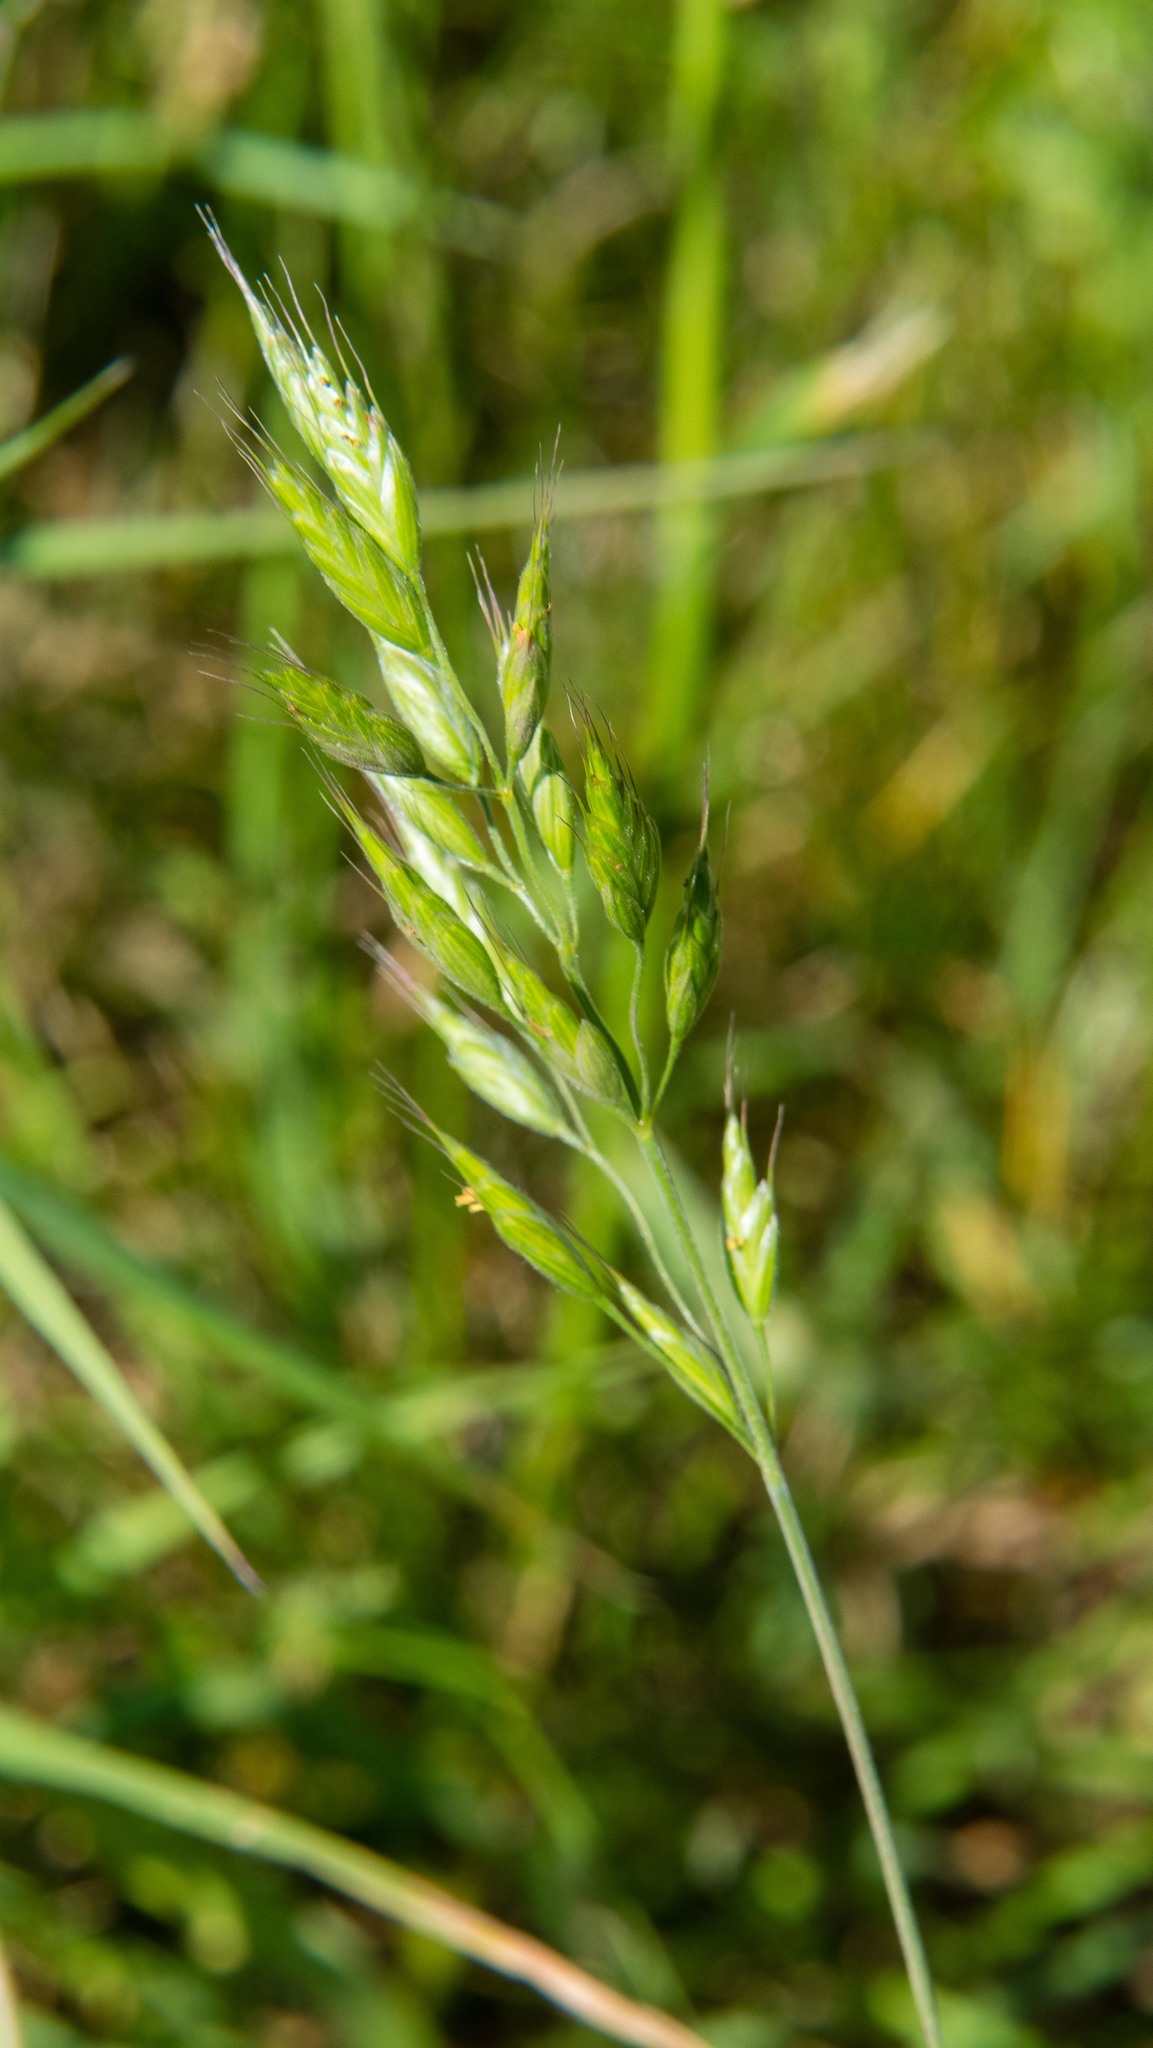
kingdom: Plantae
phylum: Tracheophyta
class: Liliopsida
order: Poales
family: Poaceae
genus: Bromus
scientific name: Bromus hordeaceus
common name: Soft brome
